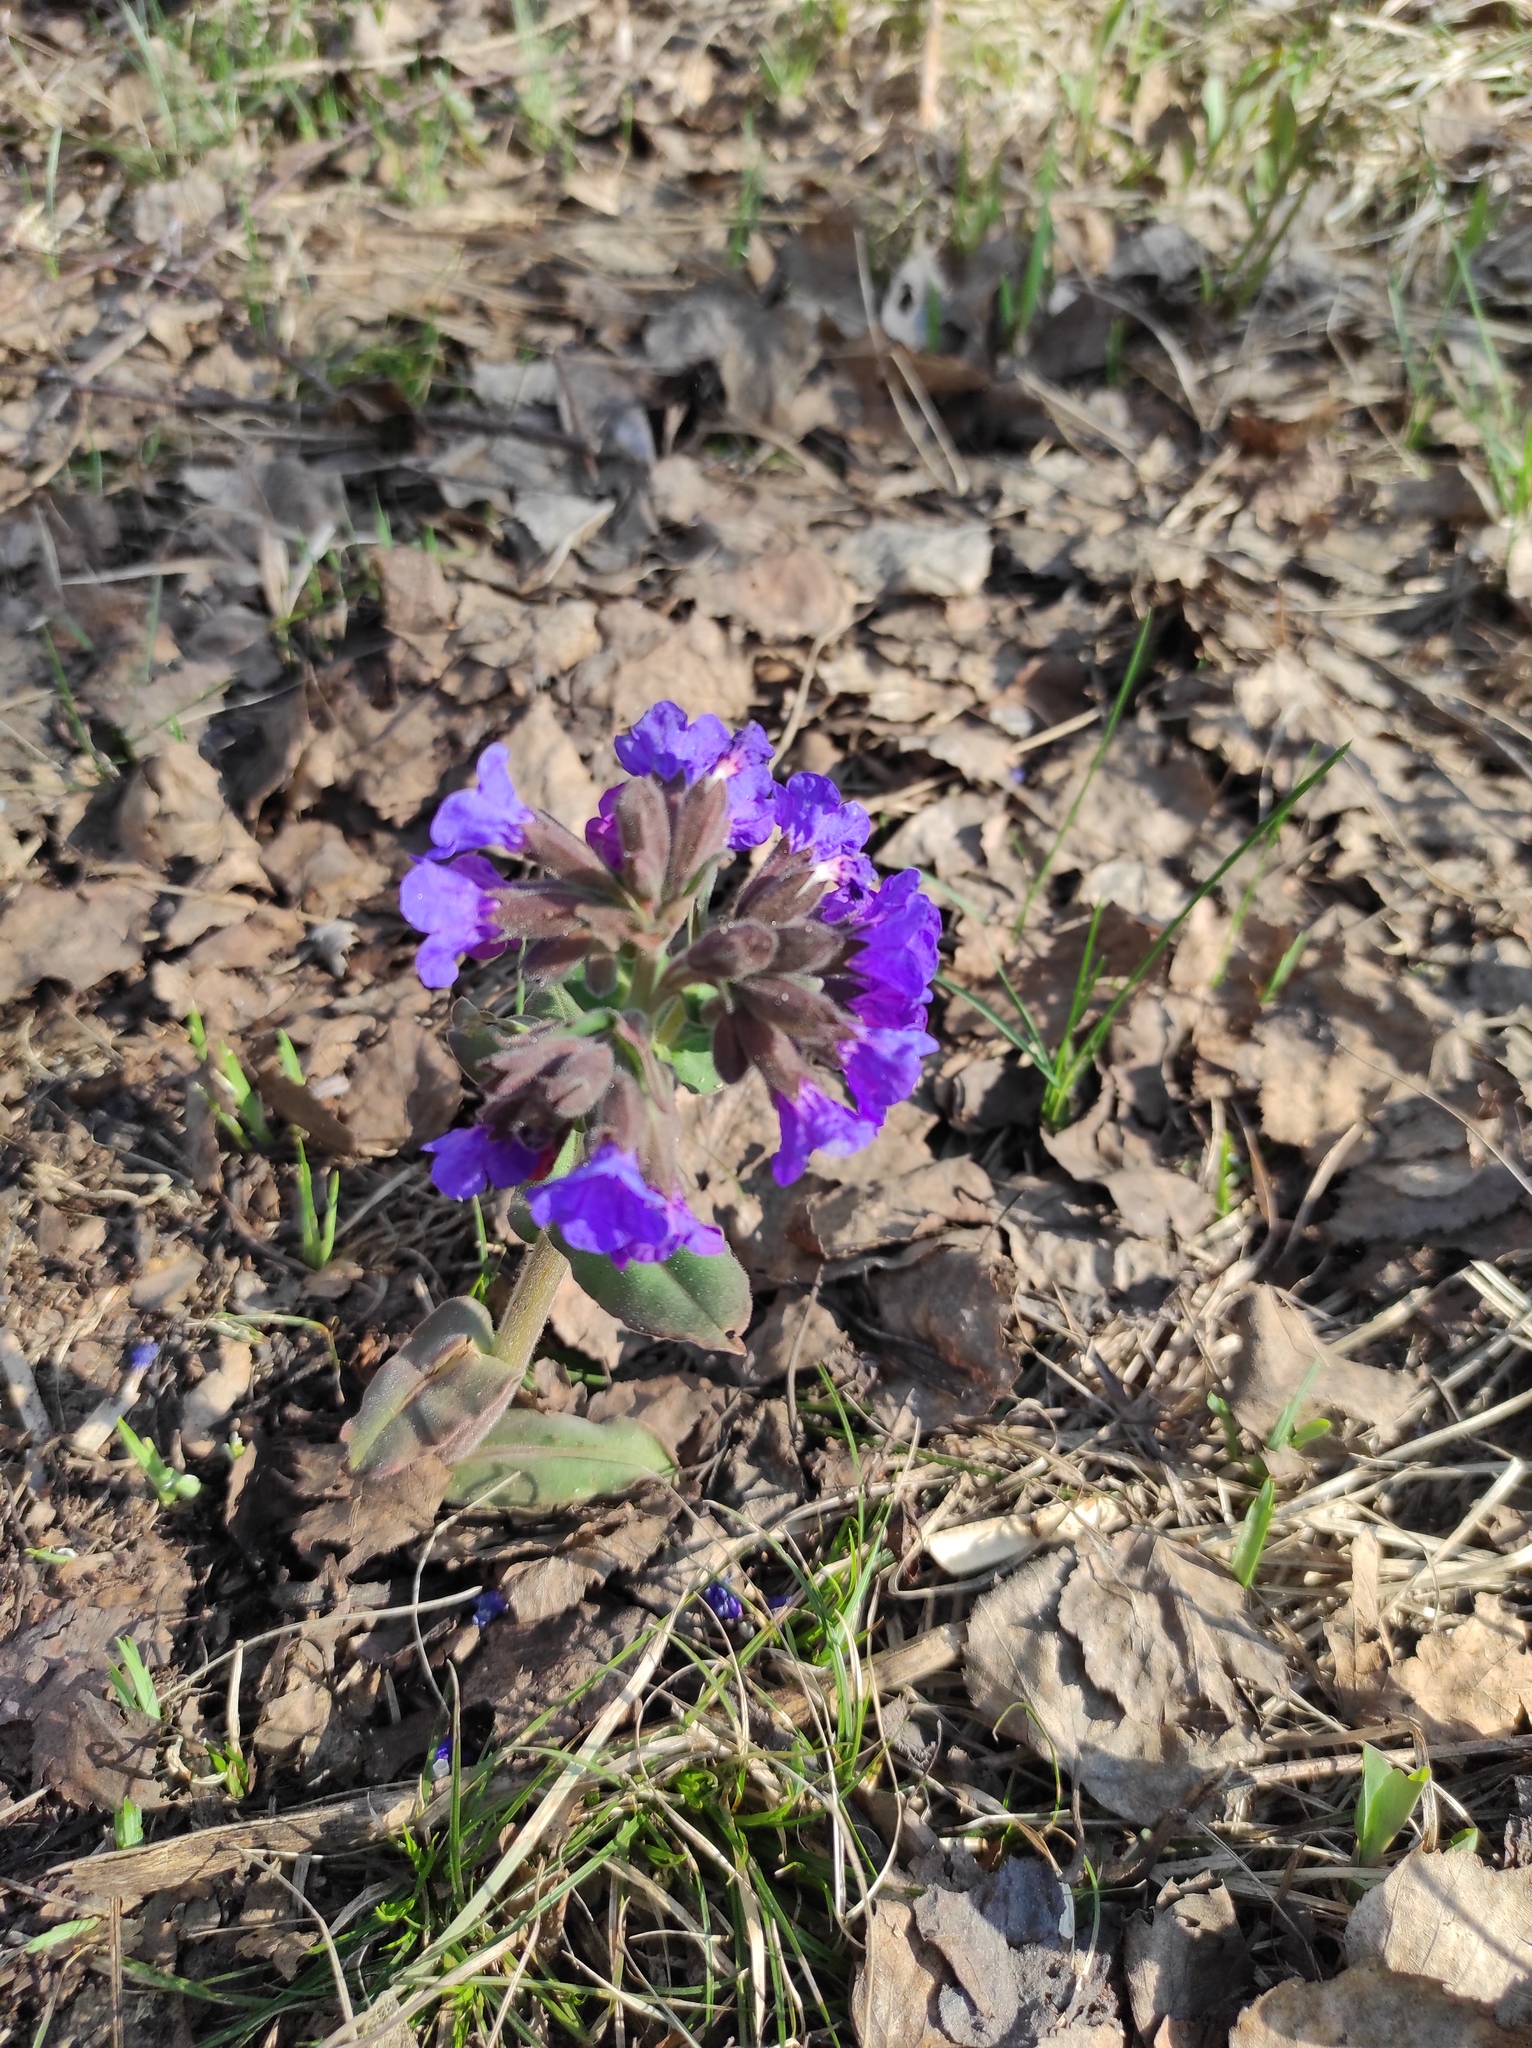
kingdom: Plantae
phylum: Tracheophyta
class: Magnoliopsida
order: Boraginales
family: Boraginaceae
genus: Pulmonaria
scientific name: Pulmonaria mollis
